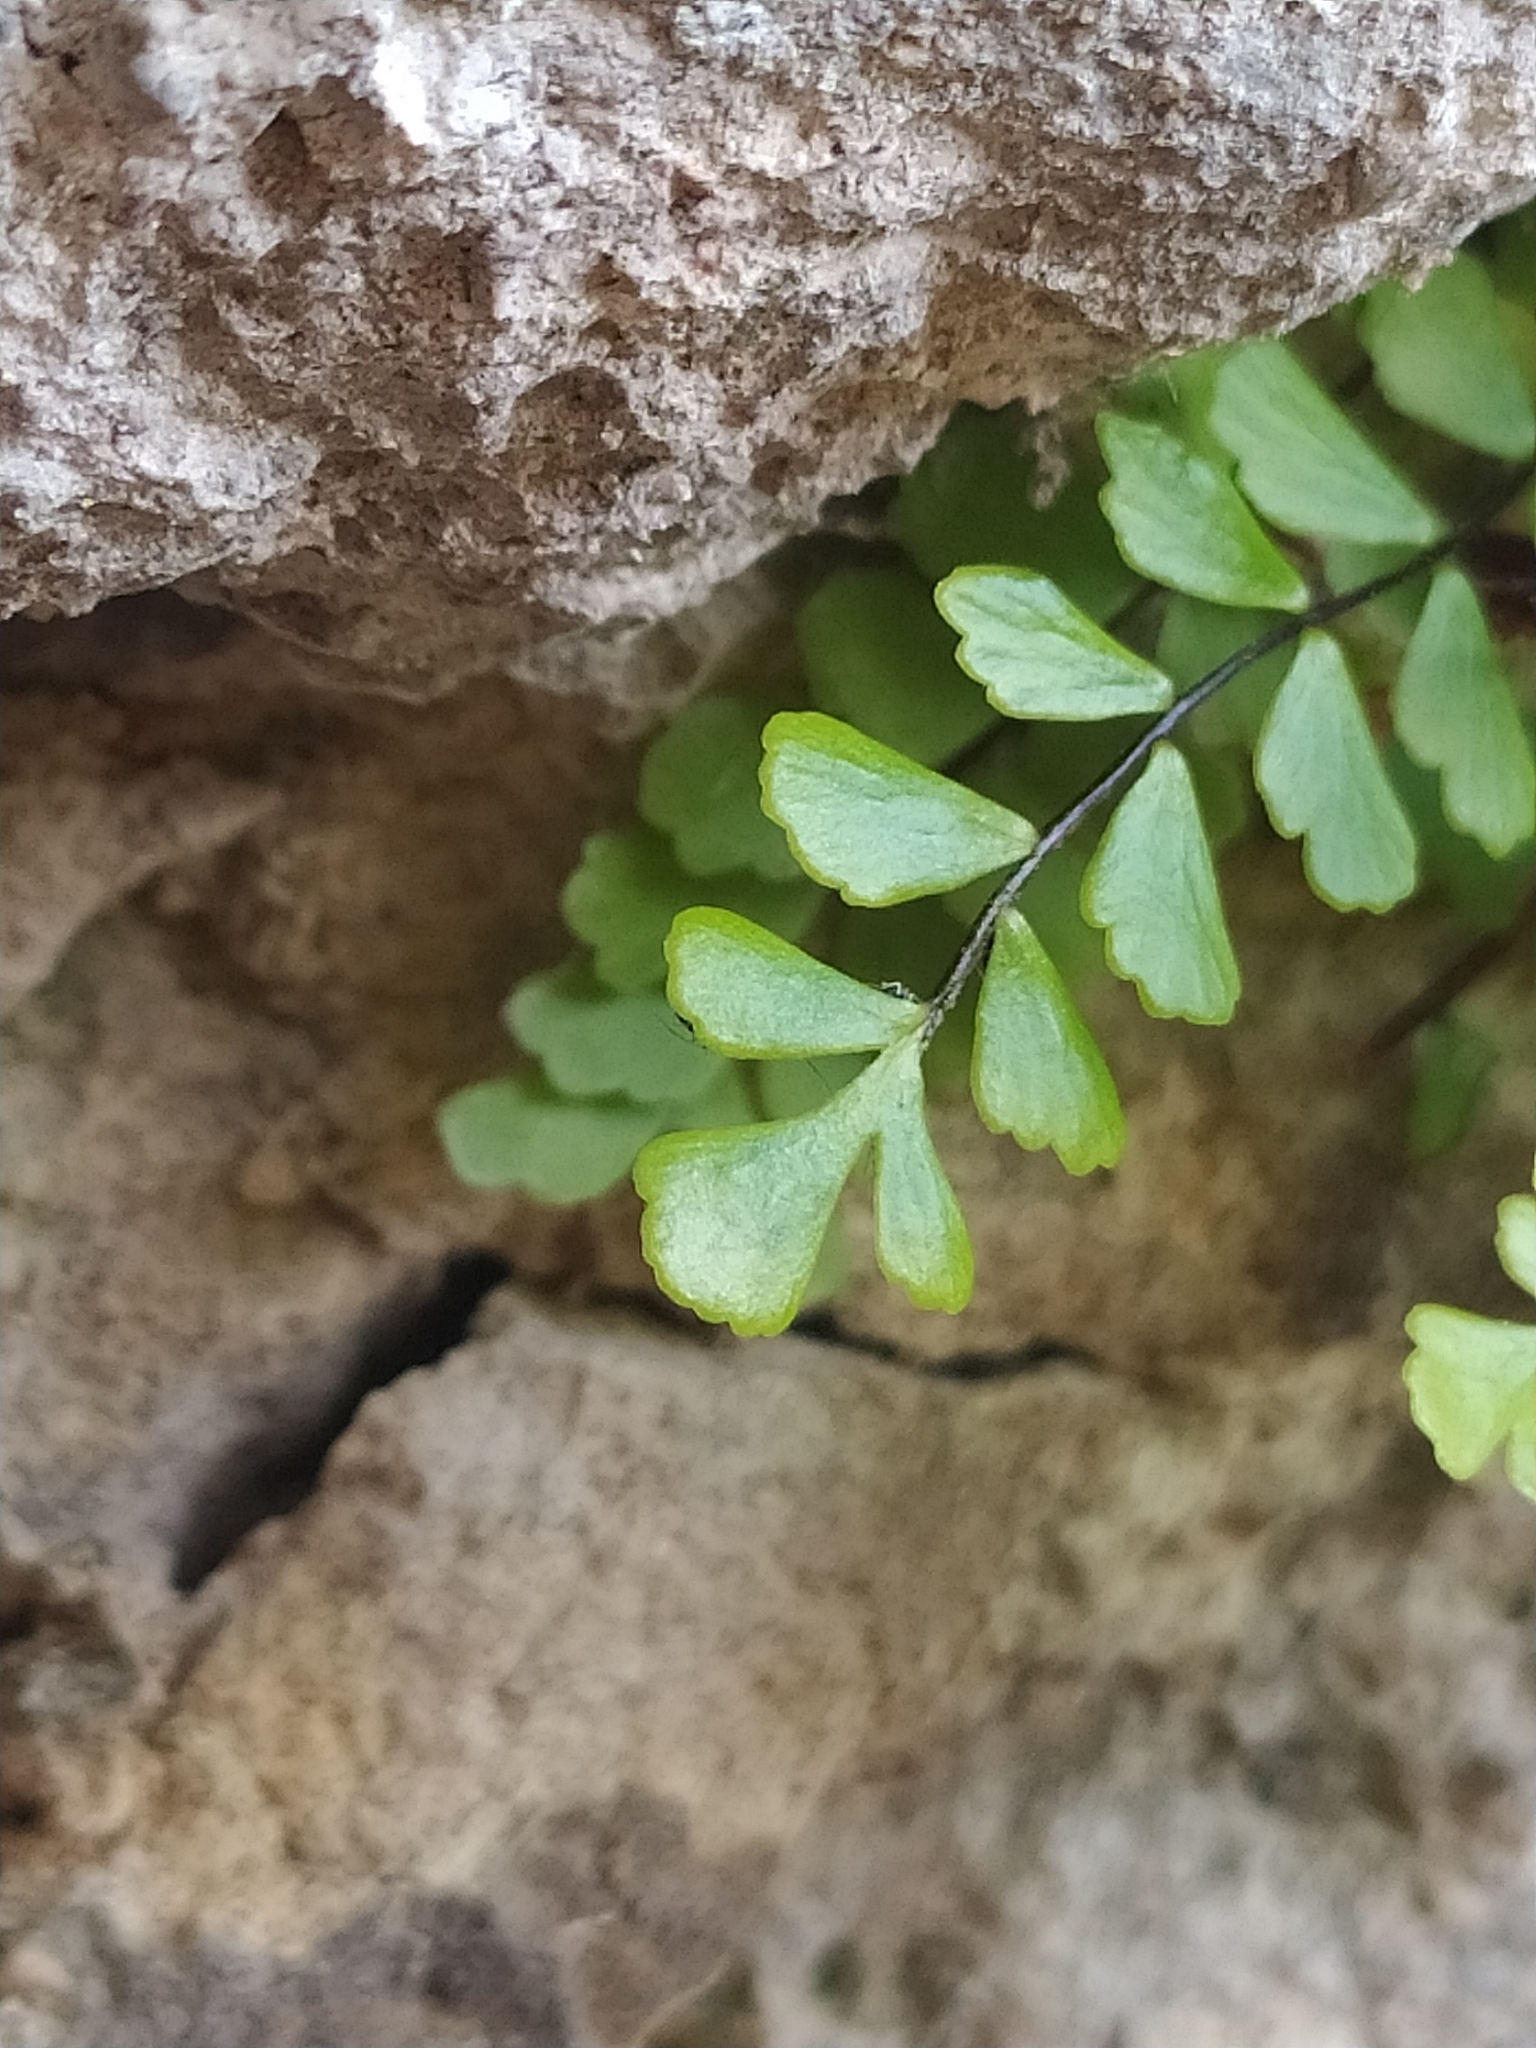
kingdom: Plantae
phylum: Tracheophyta
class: Polypodiopsida
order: Polypodiales
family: Aspleniaceae
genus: Asplenium
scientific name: Asplenium trichomanes
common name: Maidenhair spleenwort
